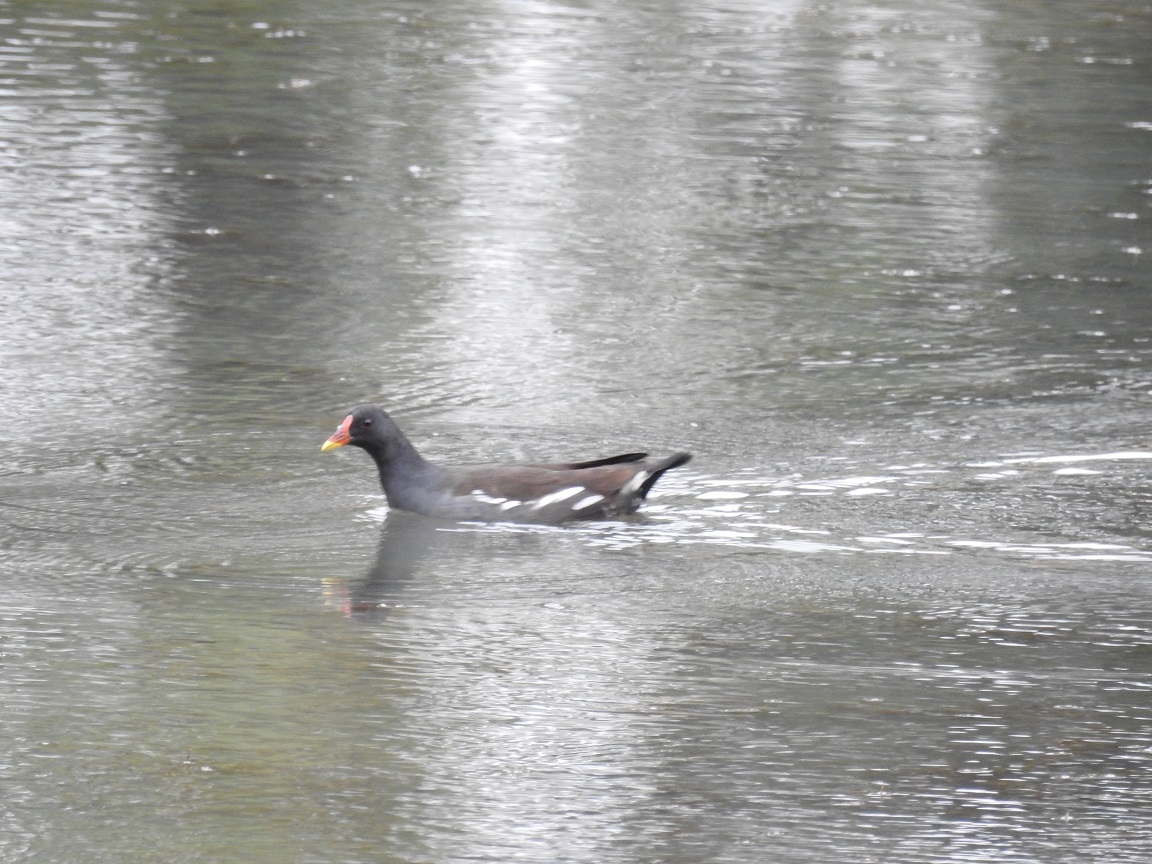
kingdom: Animalia
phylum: Chordata
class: Aves
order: Gruiformes
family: Rallidae
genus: Gallinula
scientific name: Gallinula chloropus
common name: Common moorhen
